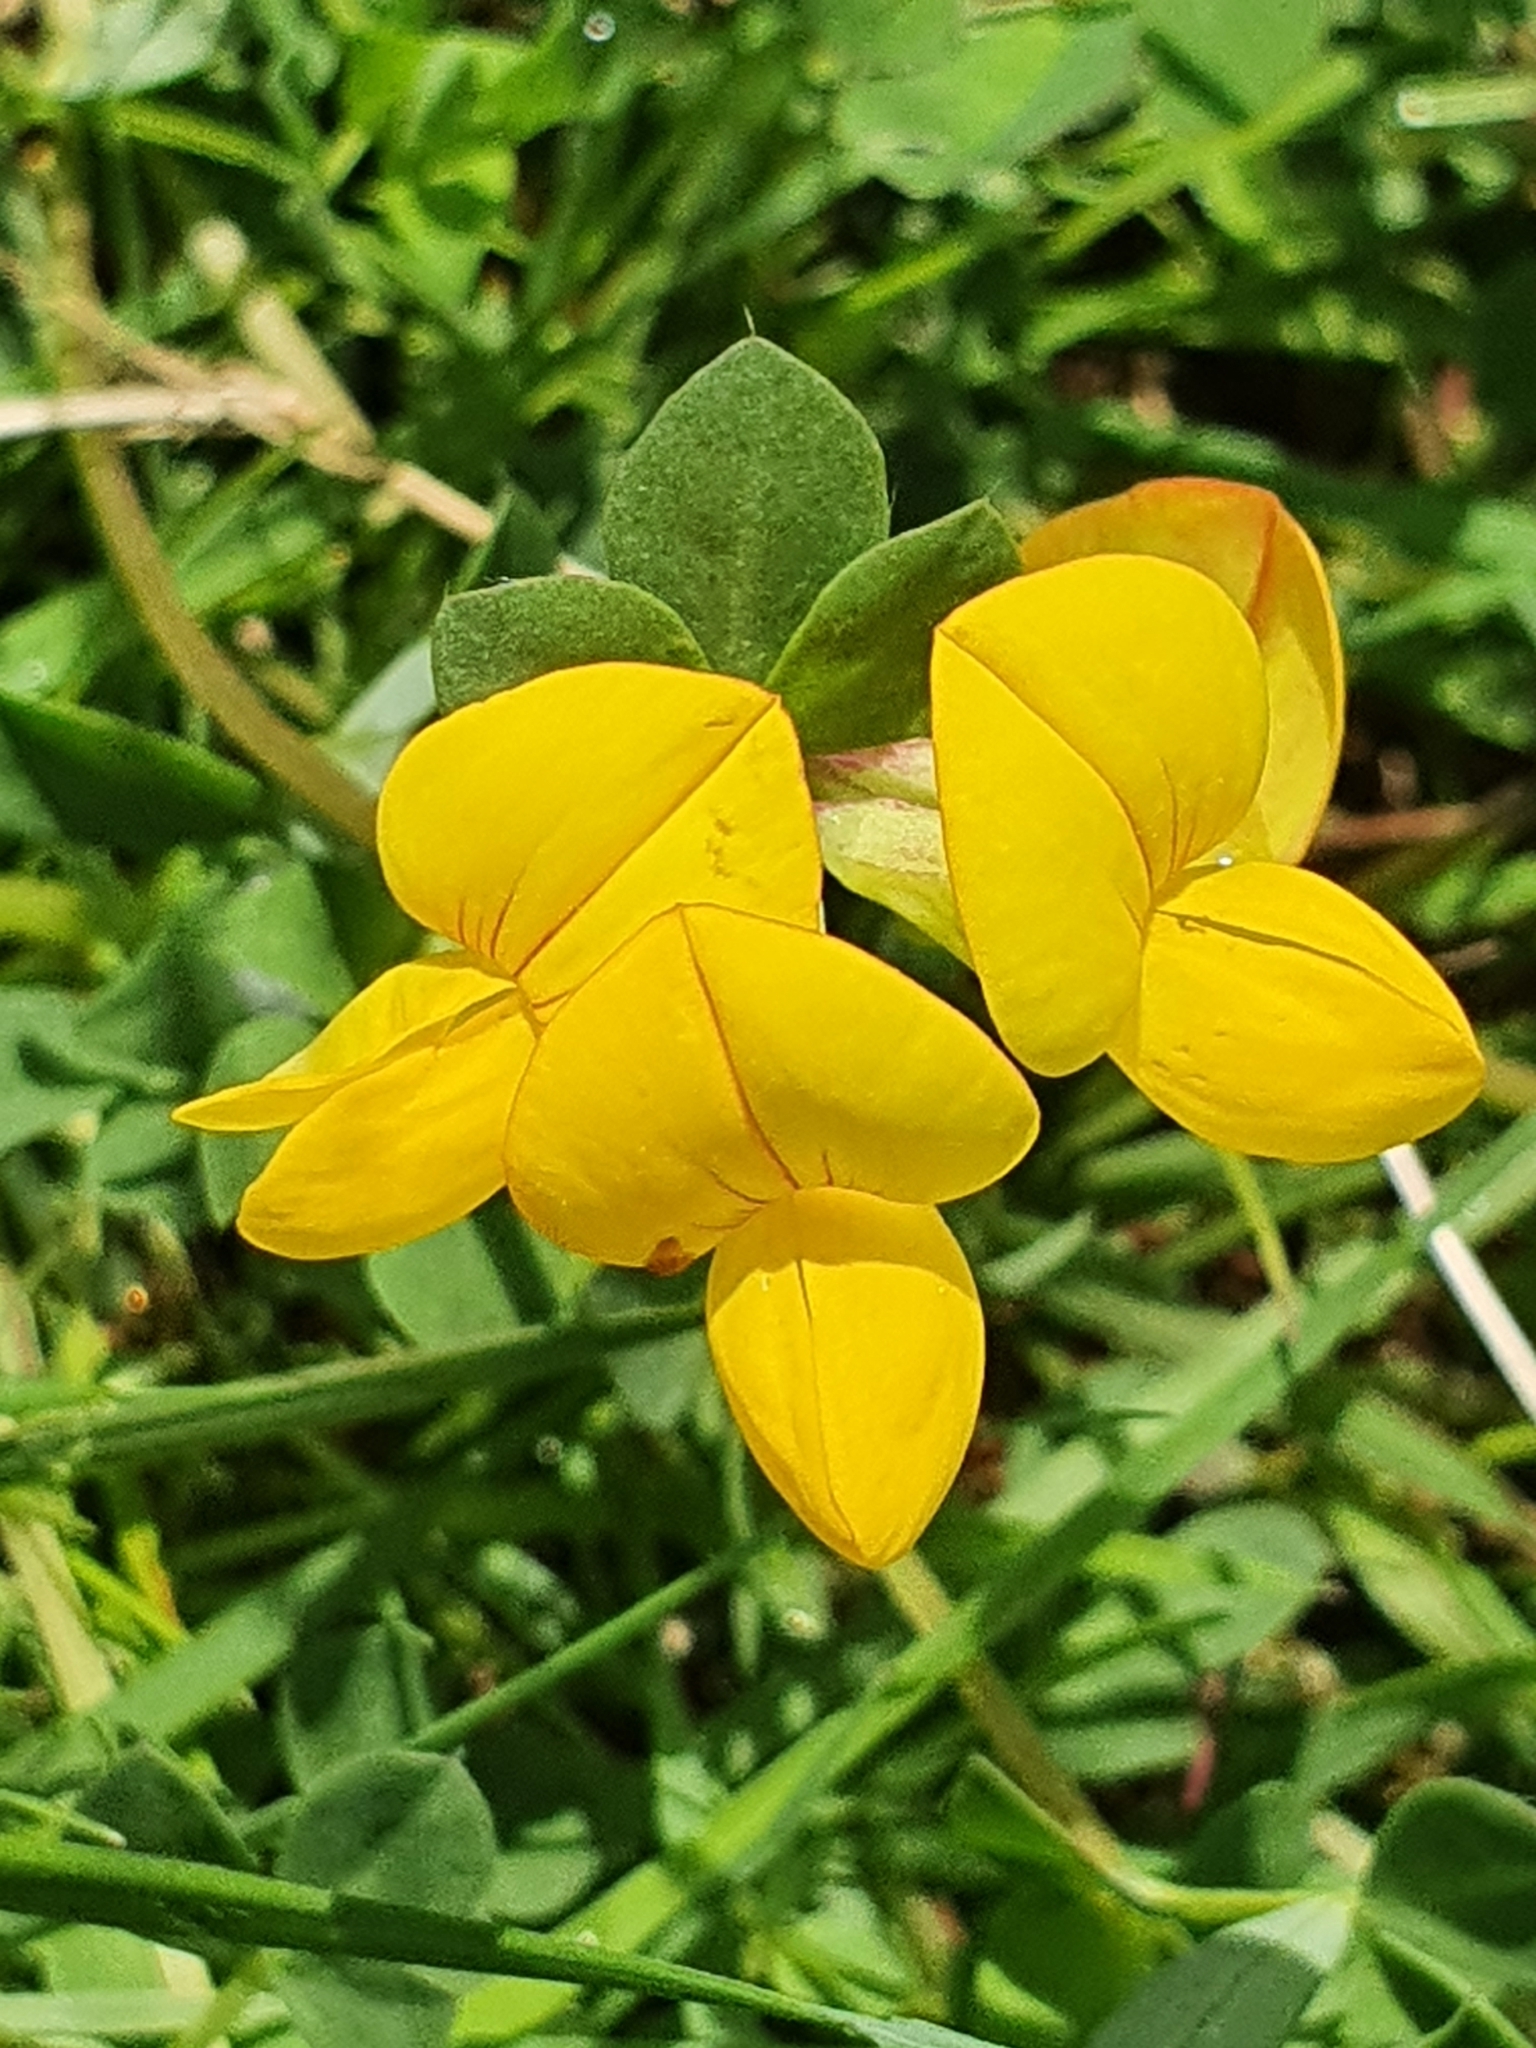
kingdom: Plantae
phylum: Tracheophyta
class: Magnoliopsida
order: Fabales
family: Fabaceae
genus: Lotus
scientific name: Lotus corniculatus
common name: Common bird's-foot-trefoil
